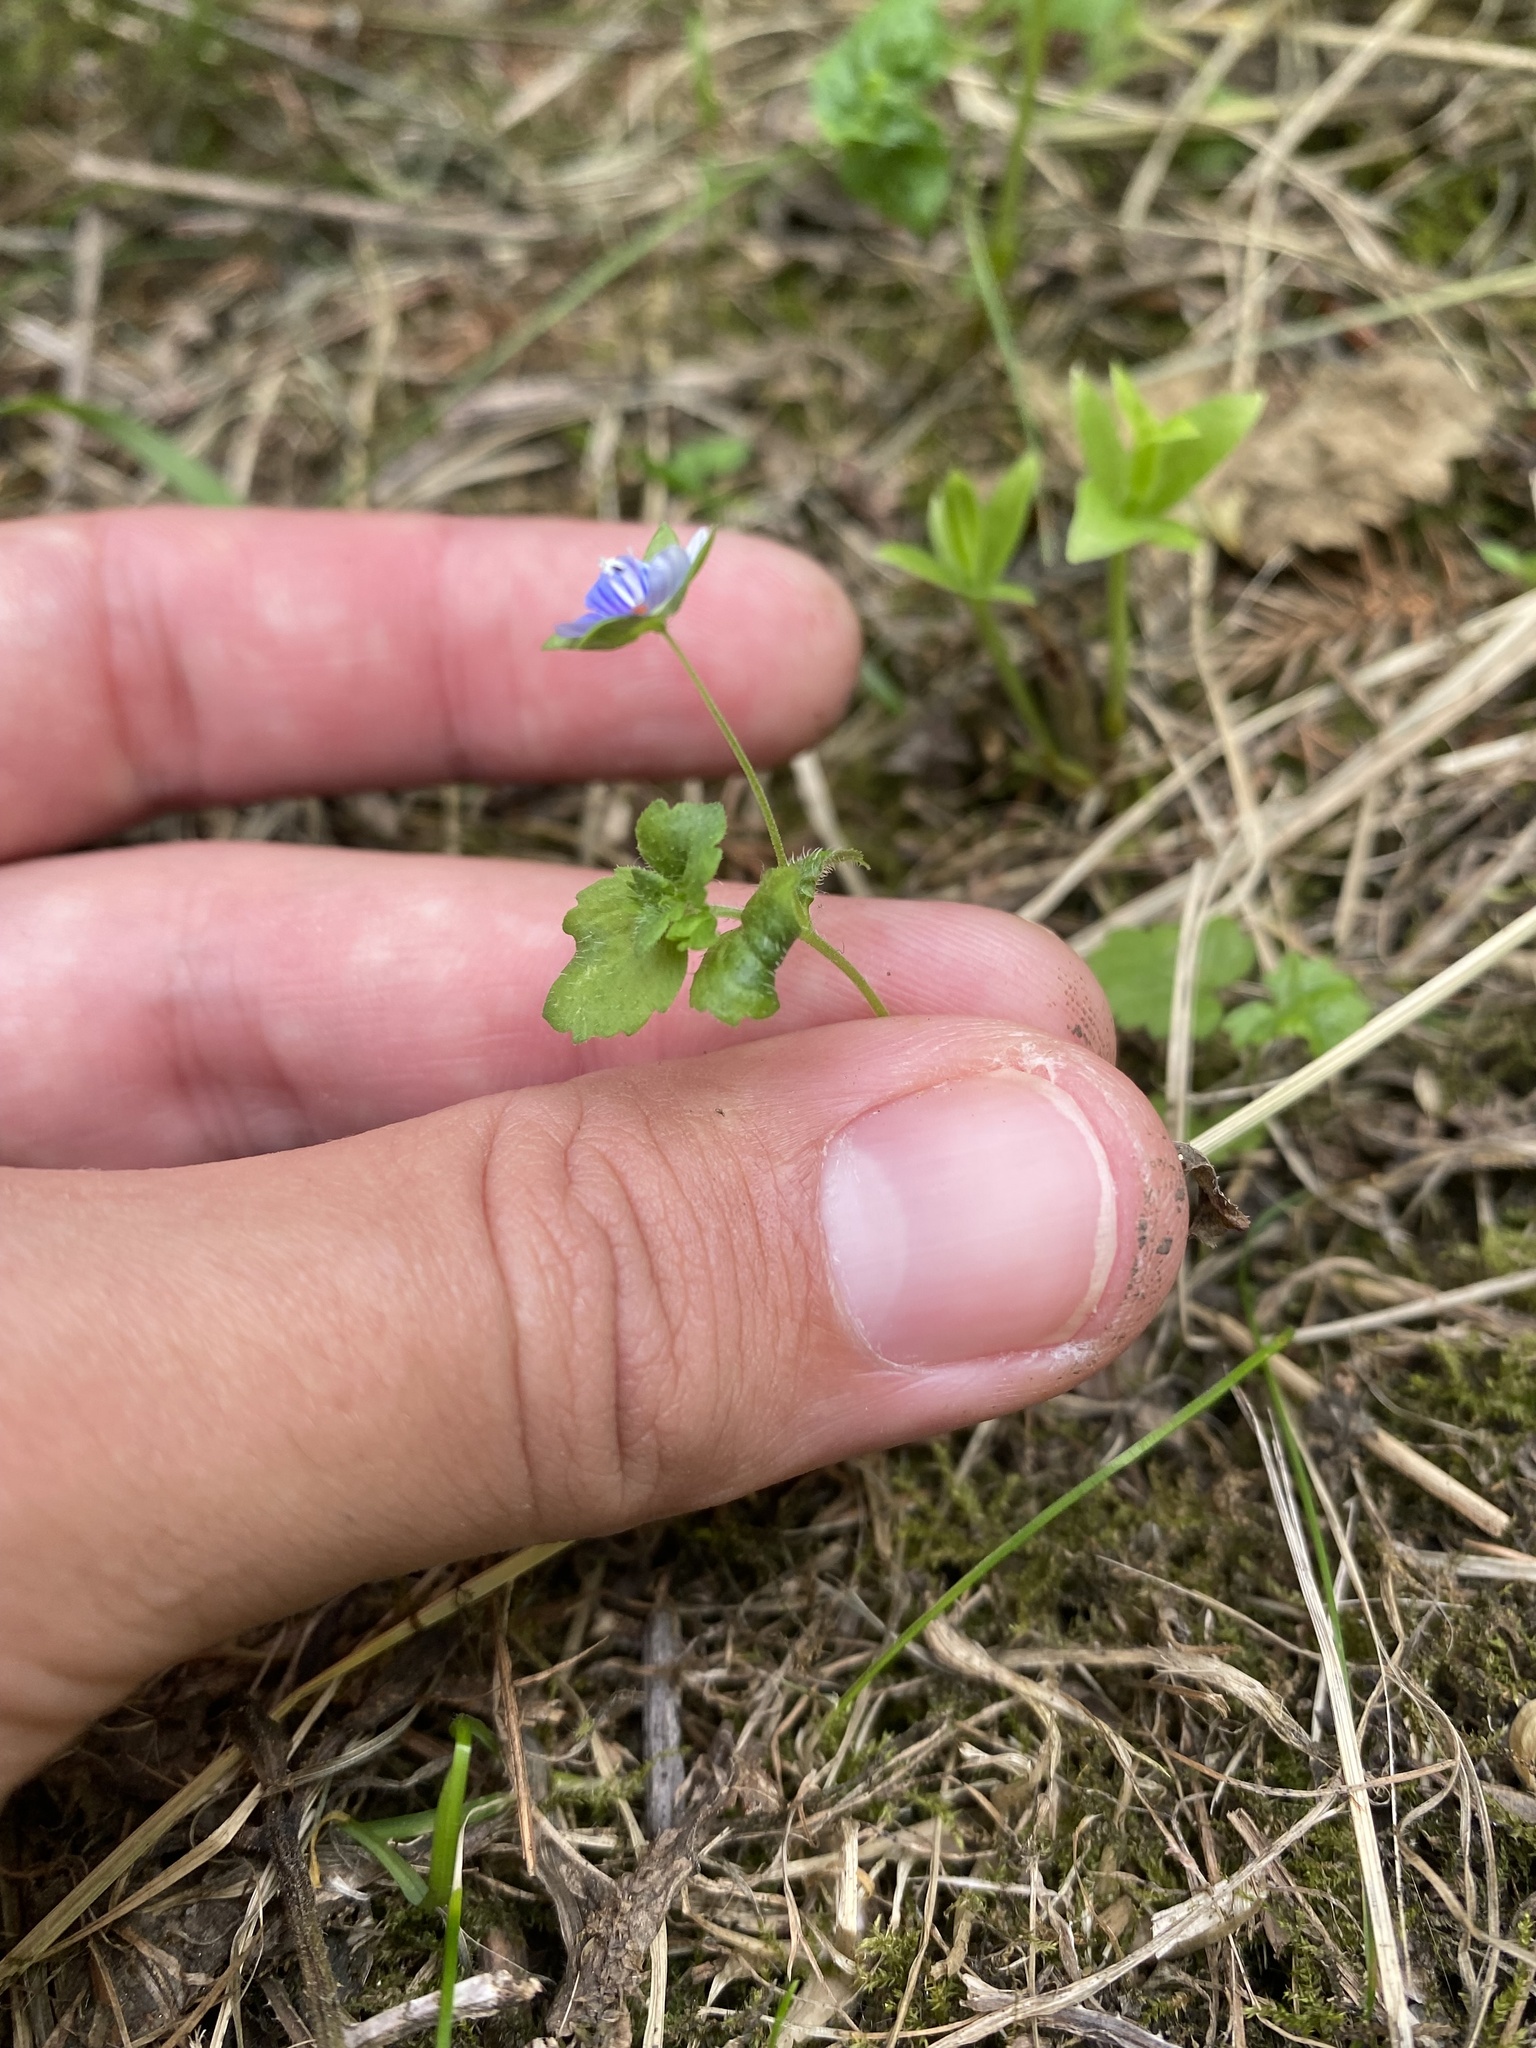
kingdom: Plantae
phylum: Tracheophyta
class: Magnoliopsida
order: Lamiales
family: Plantaginaceae
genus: Veronica
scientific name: Veronica persica
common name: Common field-speedwell
